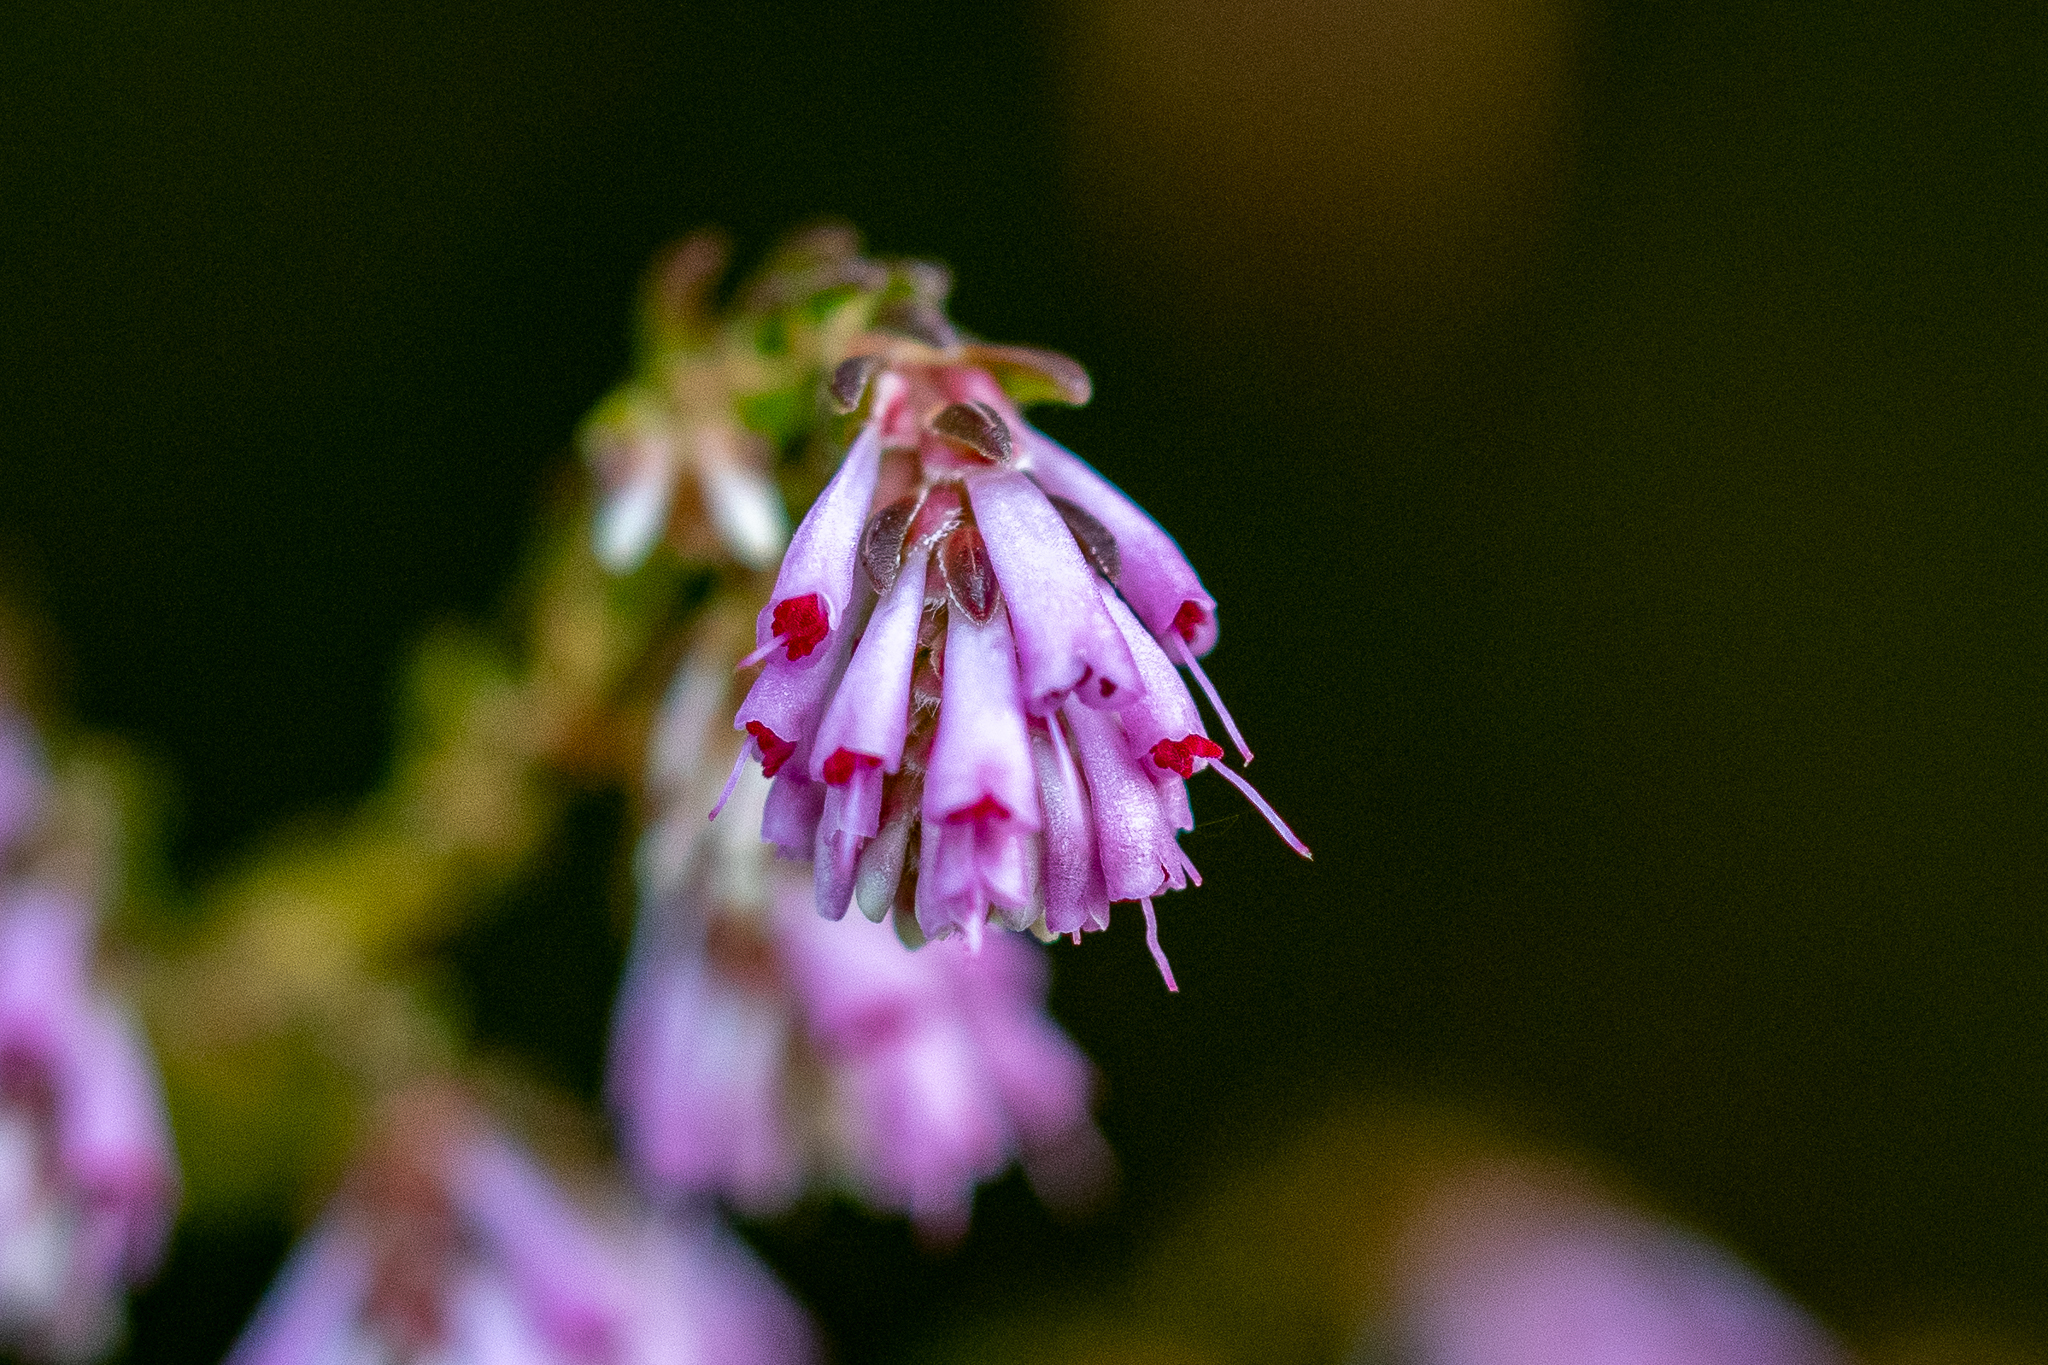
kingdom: Plantae
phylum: Tracheophyta
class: Magnoliopsida
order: Ericales
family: Ericaceae
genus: Erica
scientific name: Erica labialis
